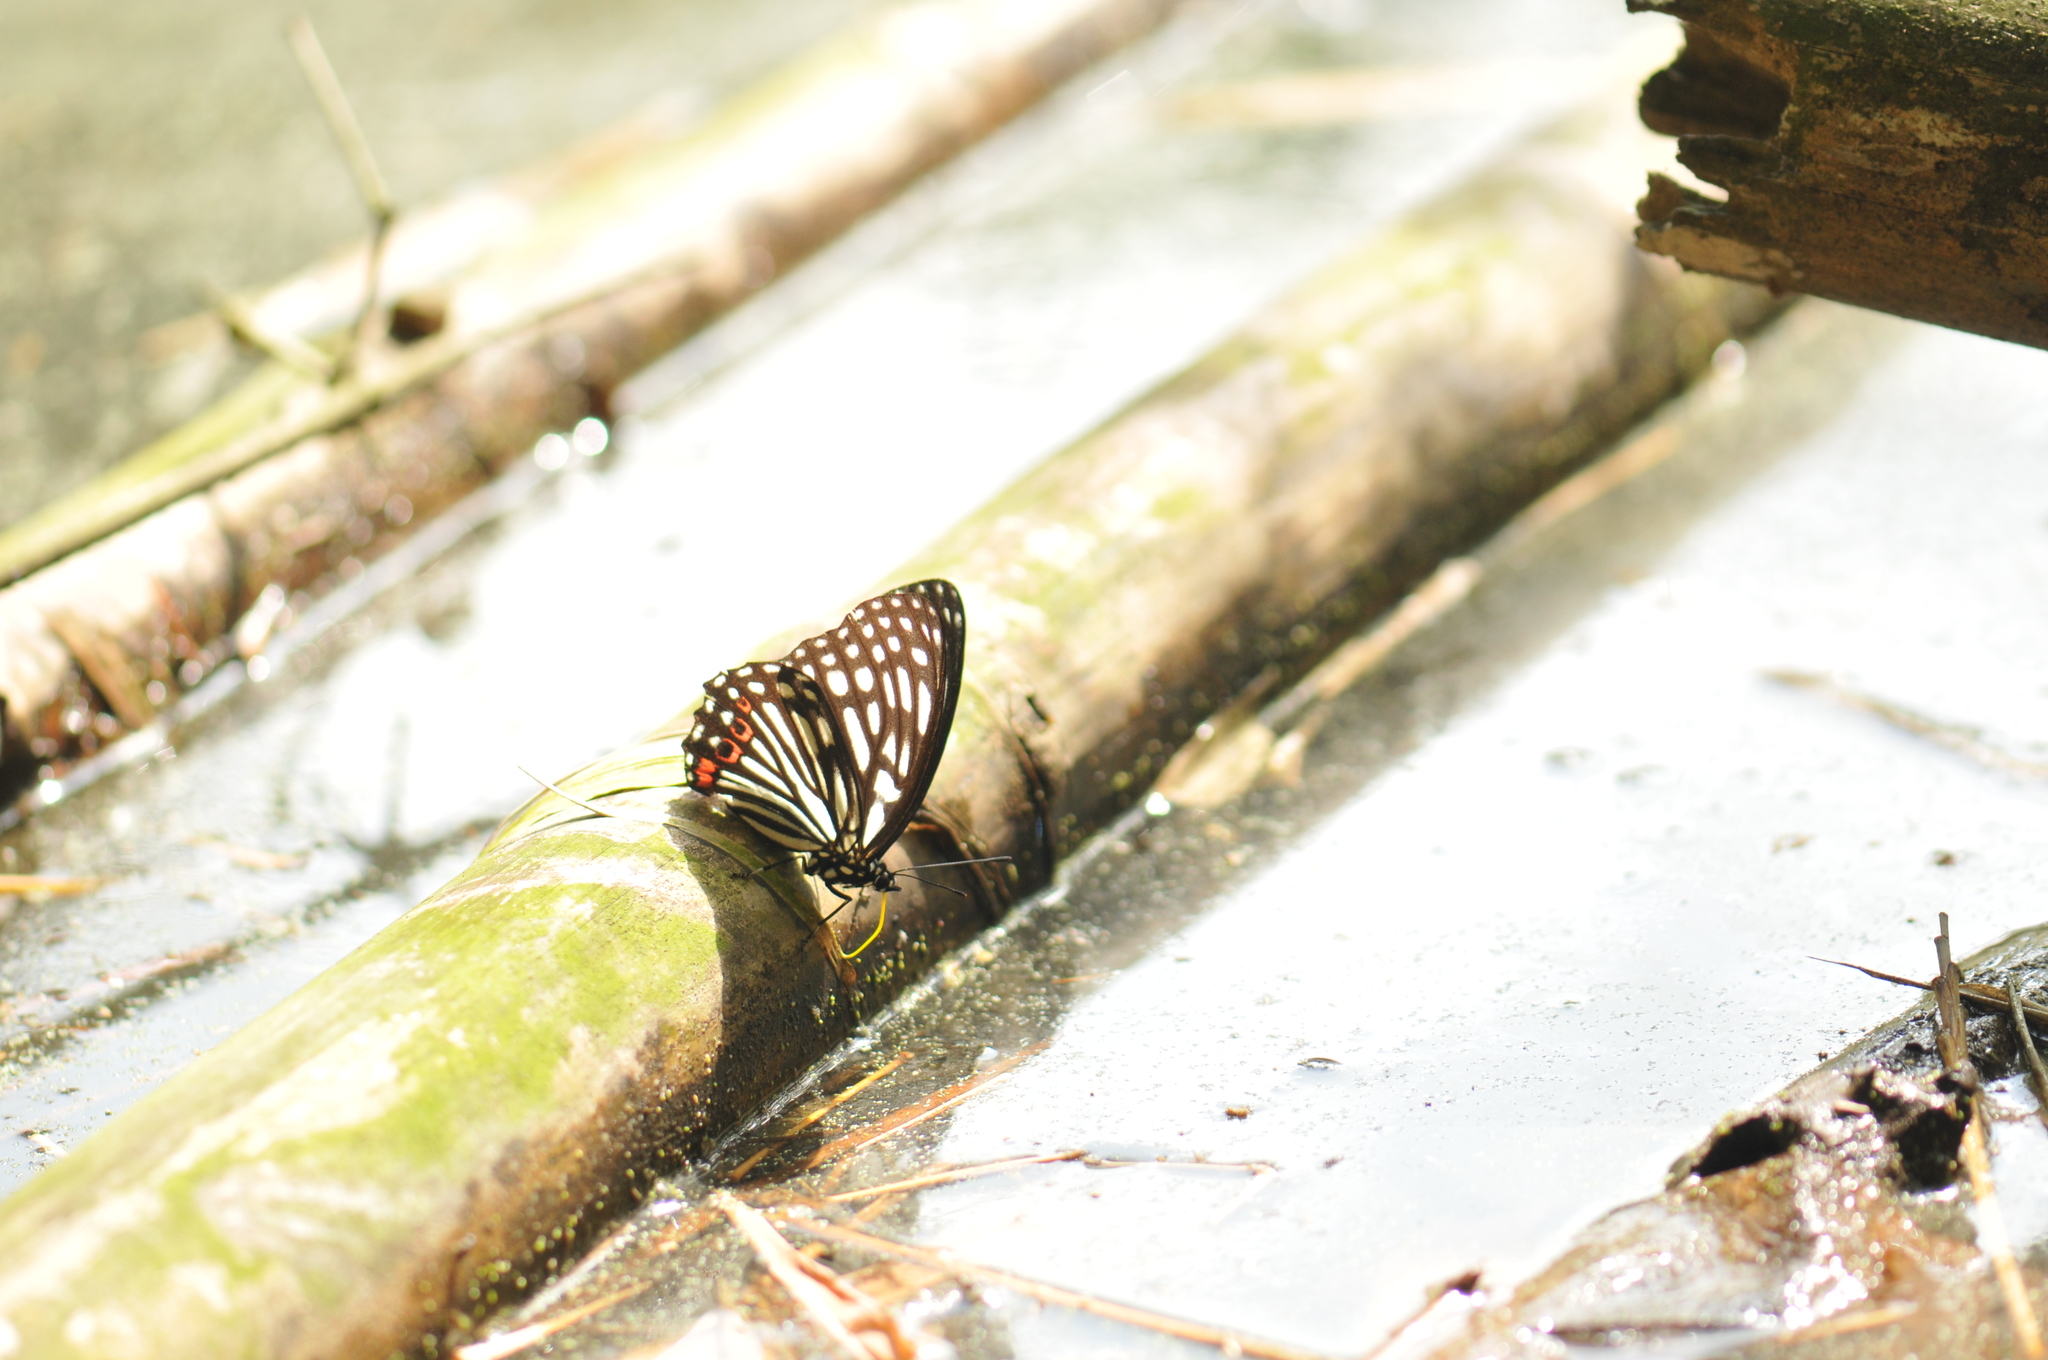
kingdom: Animalia
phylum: Arthropoda
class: Insecta
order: Lepidoptera
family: Nymphalidae
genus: Hestina
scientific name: Hestina assimilis
